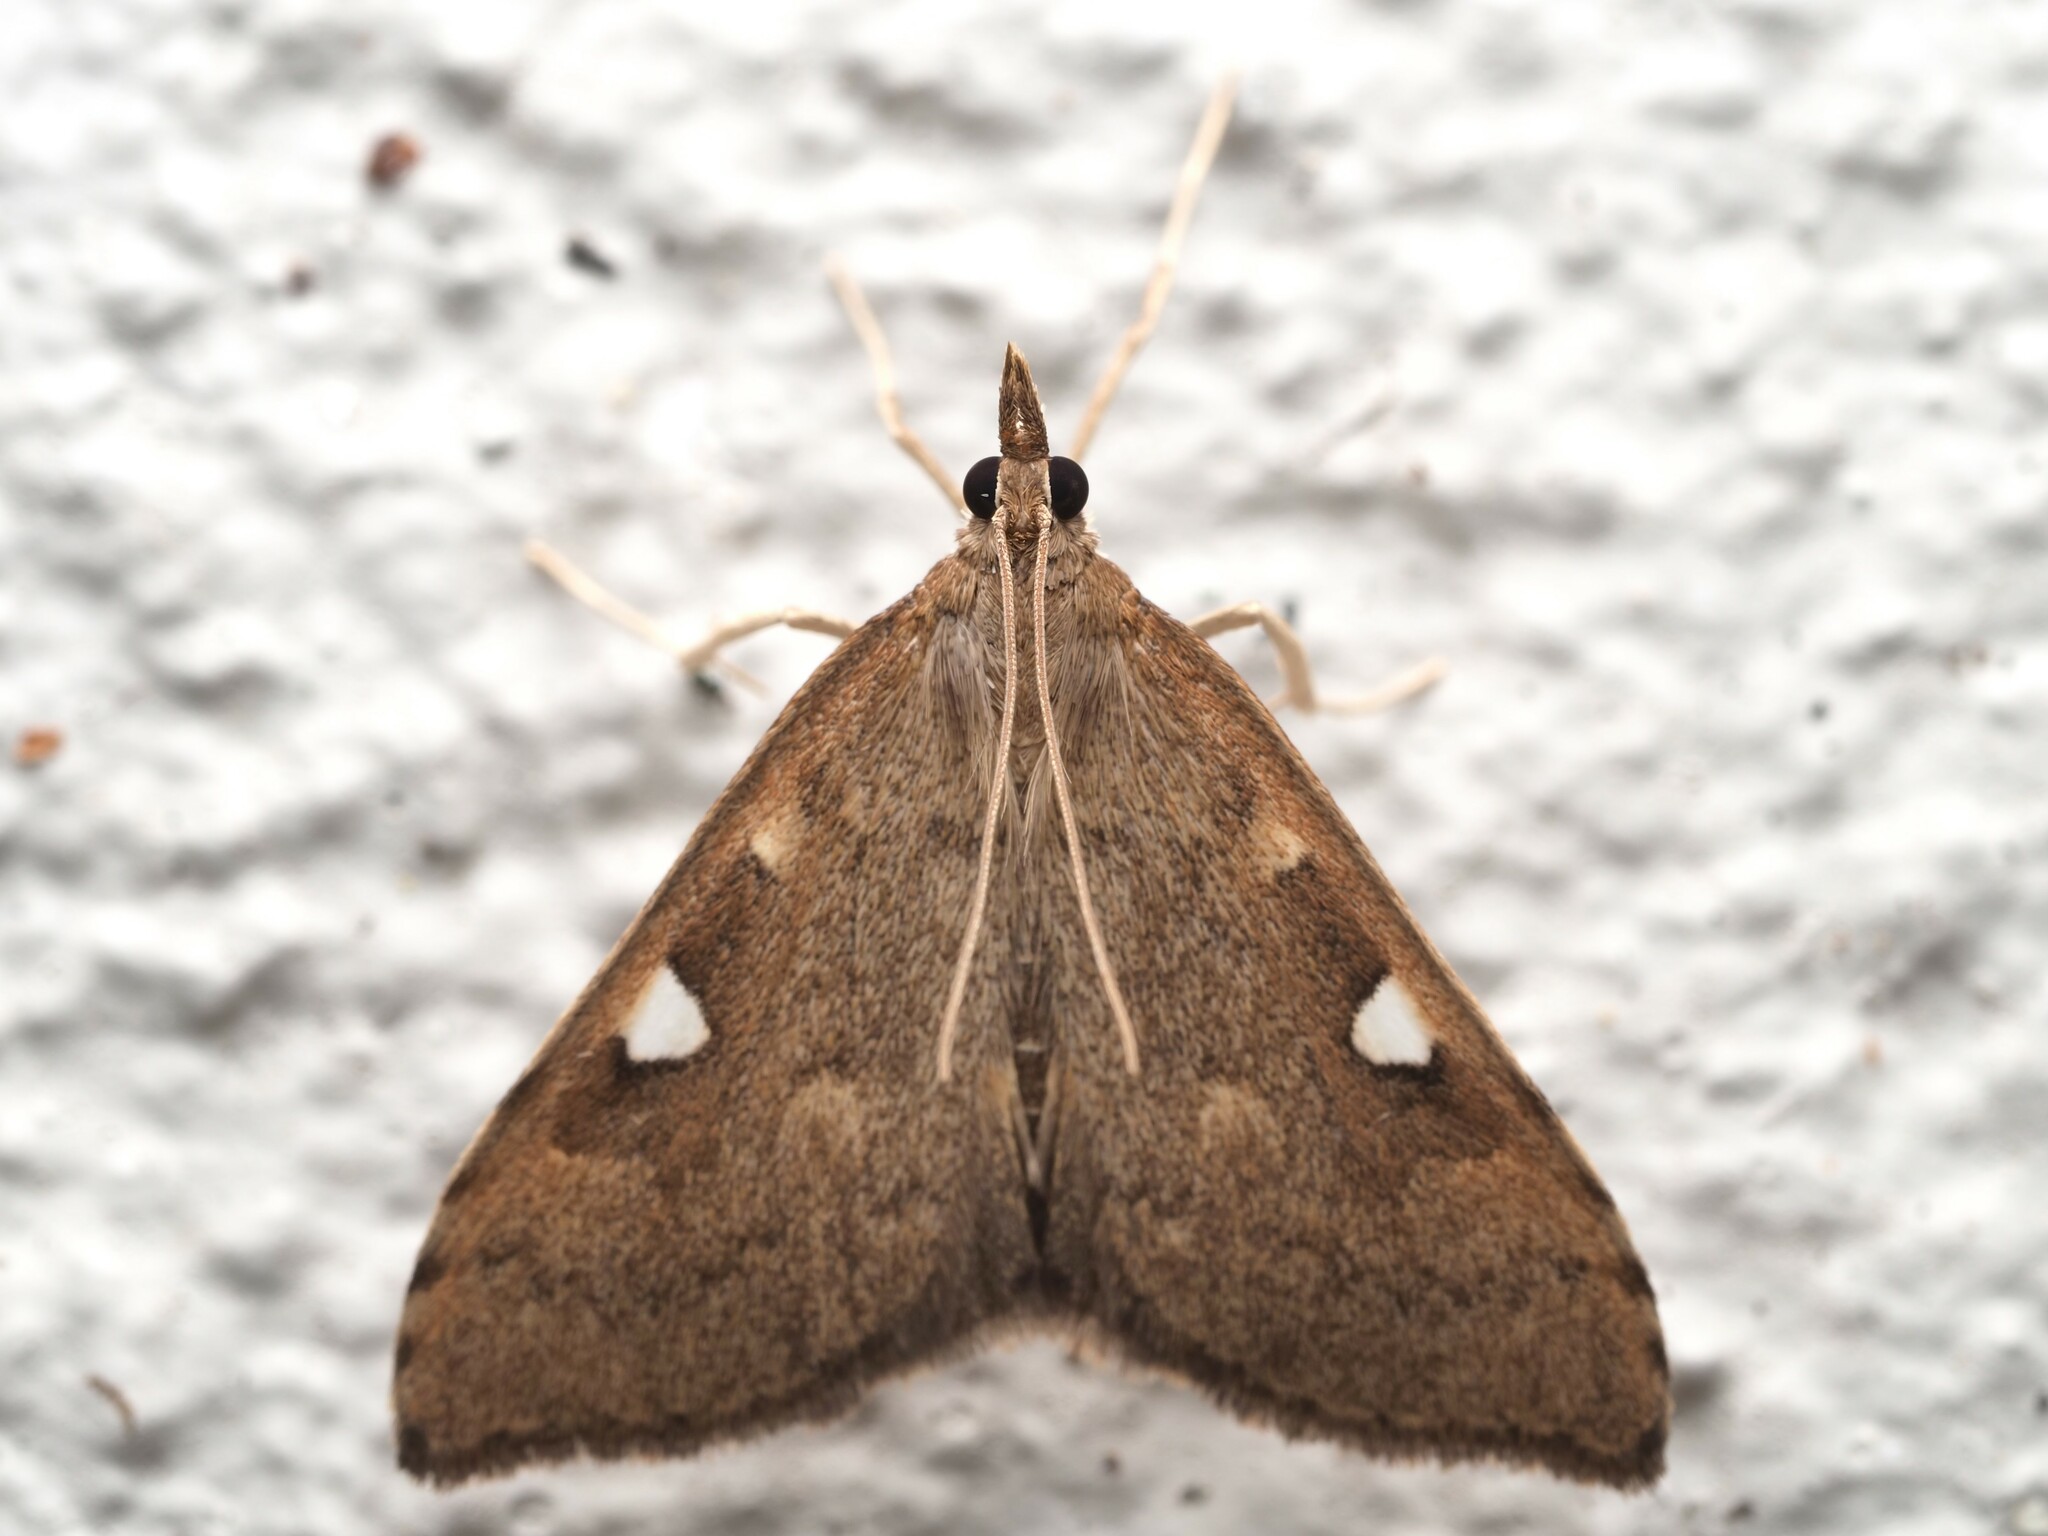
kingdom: Animalia
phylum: Arthropoda
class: Insecta
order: Lepidoptera
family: Crambidae
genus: Udea
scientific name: Udea Mnesictena marmarina
